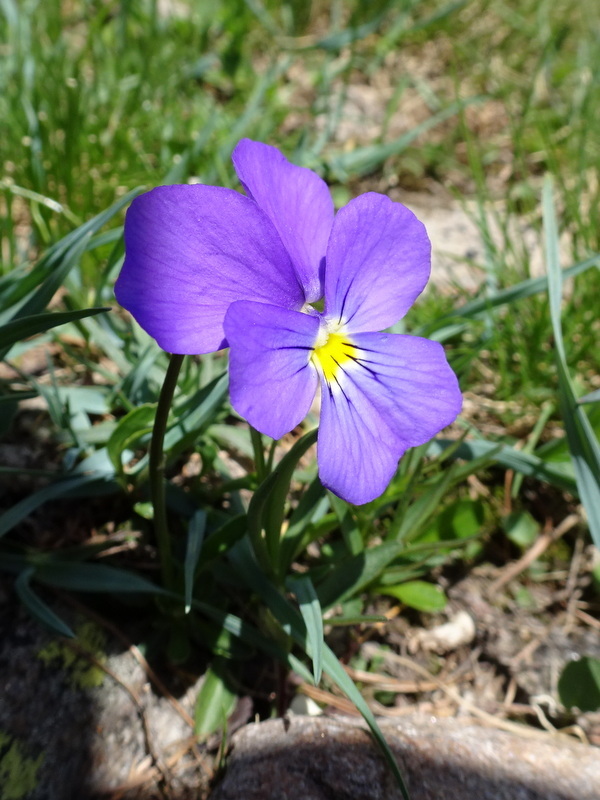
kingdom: Plantae
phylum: Tracheophyta
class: Magnoliopsida
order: Malpighiales
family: Violaceae
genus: Viola
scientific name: Viola calcarata
